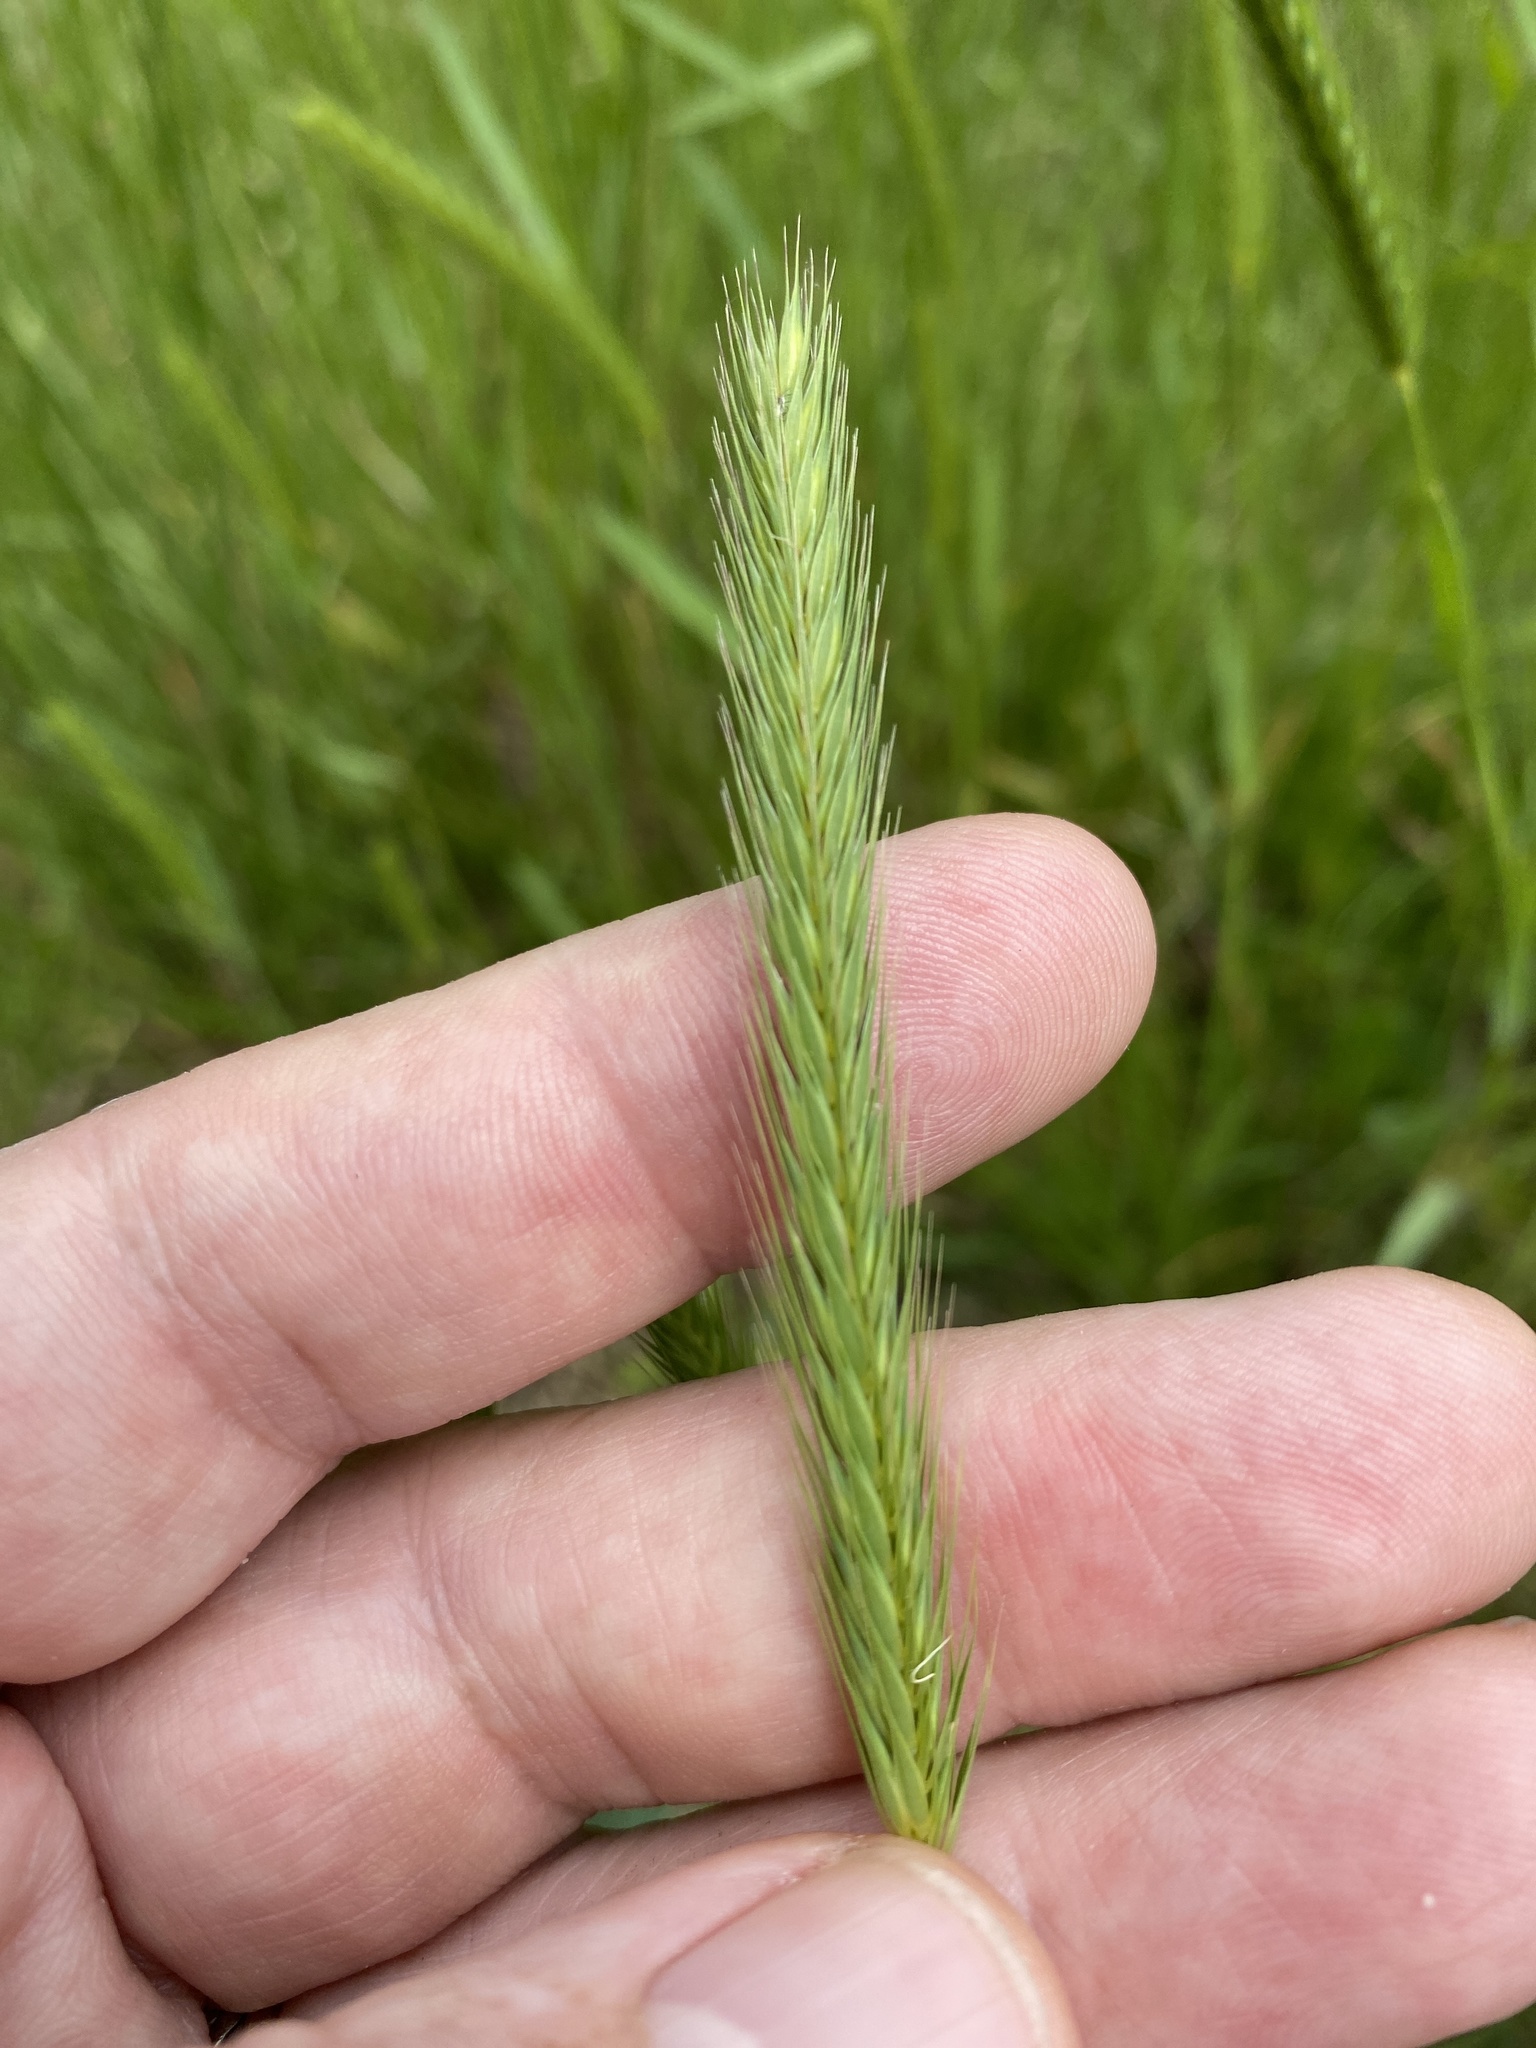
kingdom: Plantae
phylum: Tracheophyta
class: Liliopsida
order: Poales
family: Poaceae
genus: Hordeum
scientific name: Hordeum pusillum
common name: Little barley
